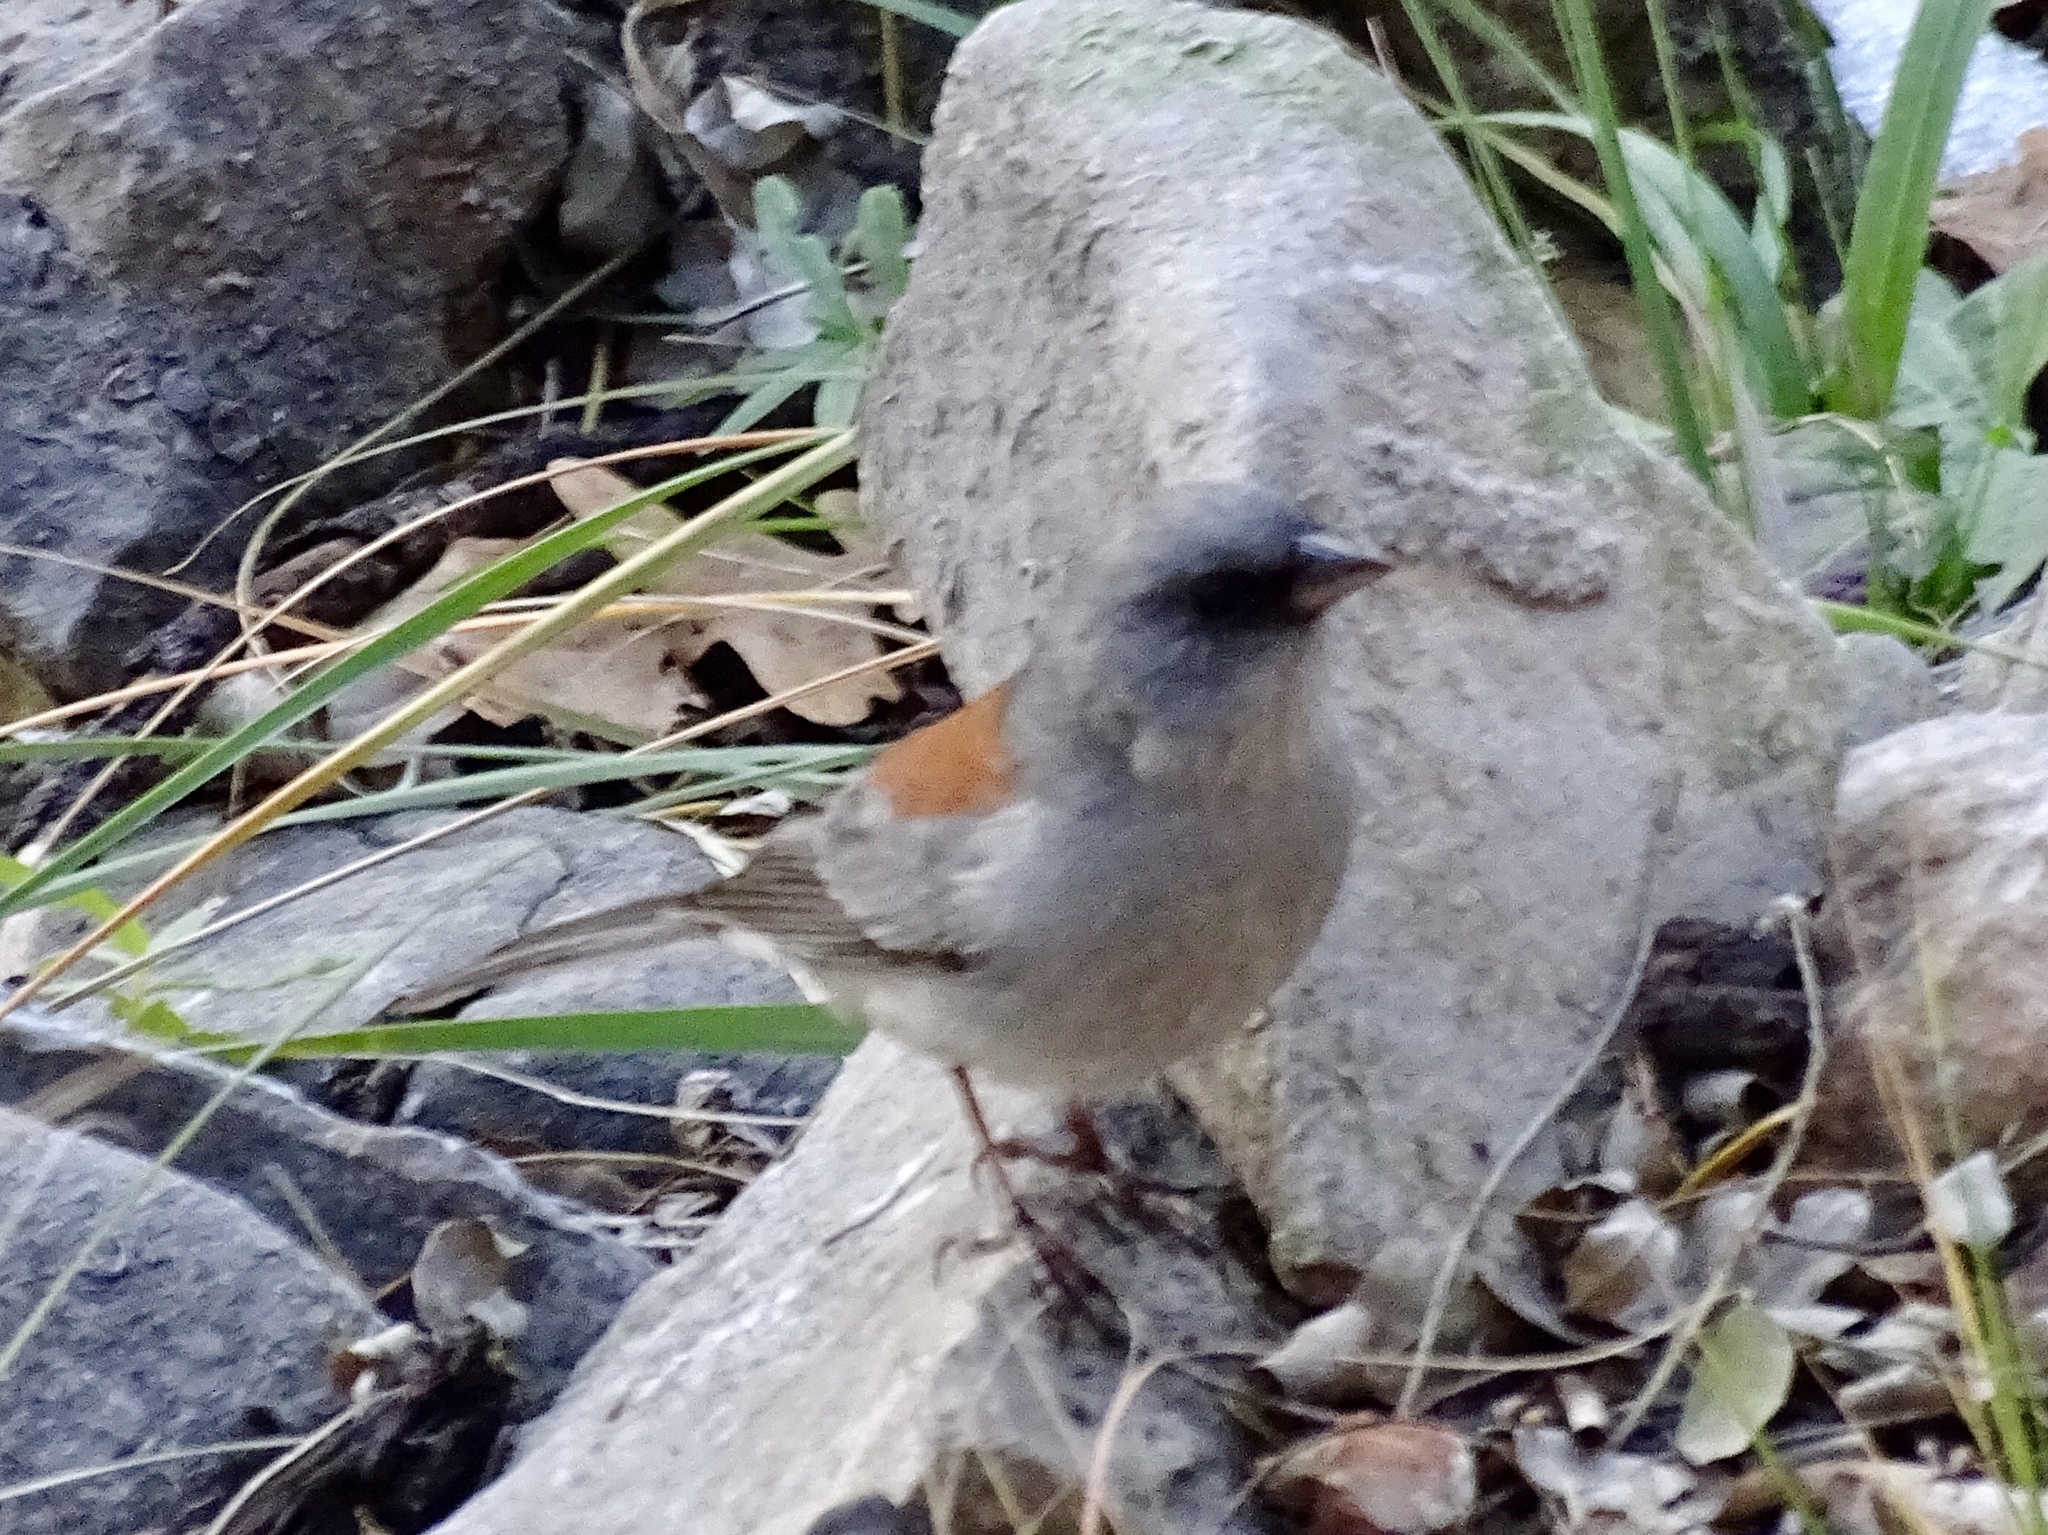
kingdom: Animalia
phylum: Chordata
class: Aves
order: Passeriformes
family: Passerellidae
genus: Junco
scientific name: Junco hyemalis
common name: Dark-eyed junco
